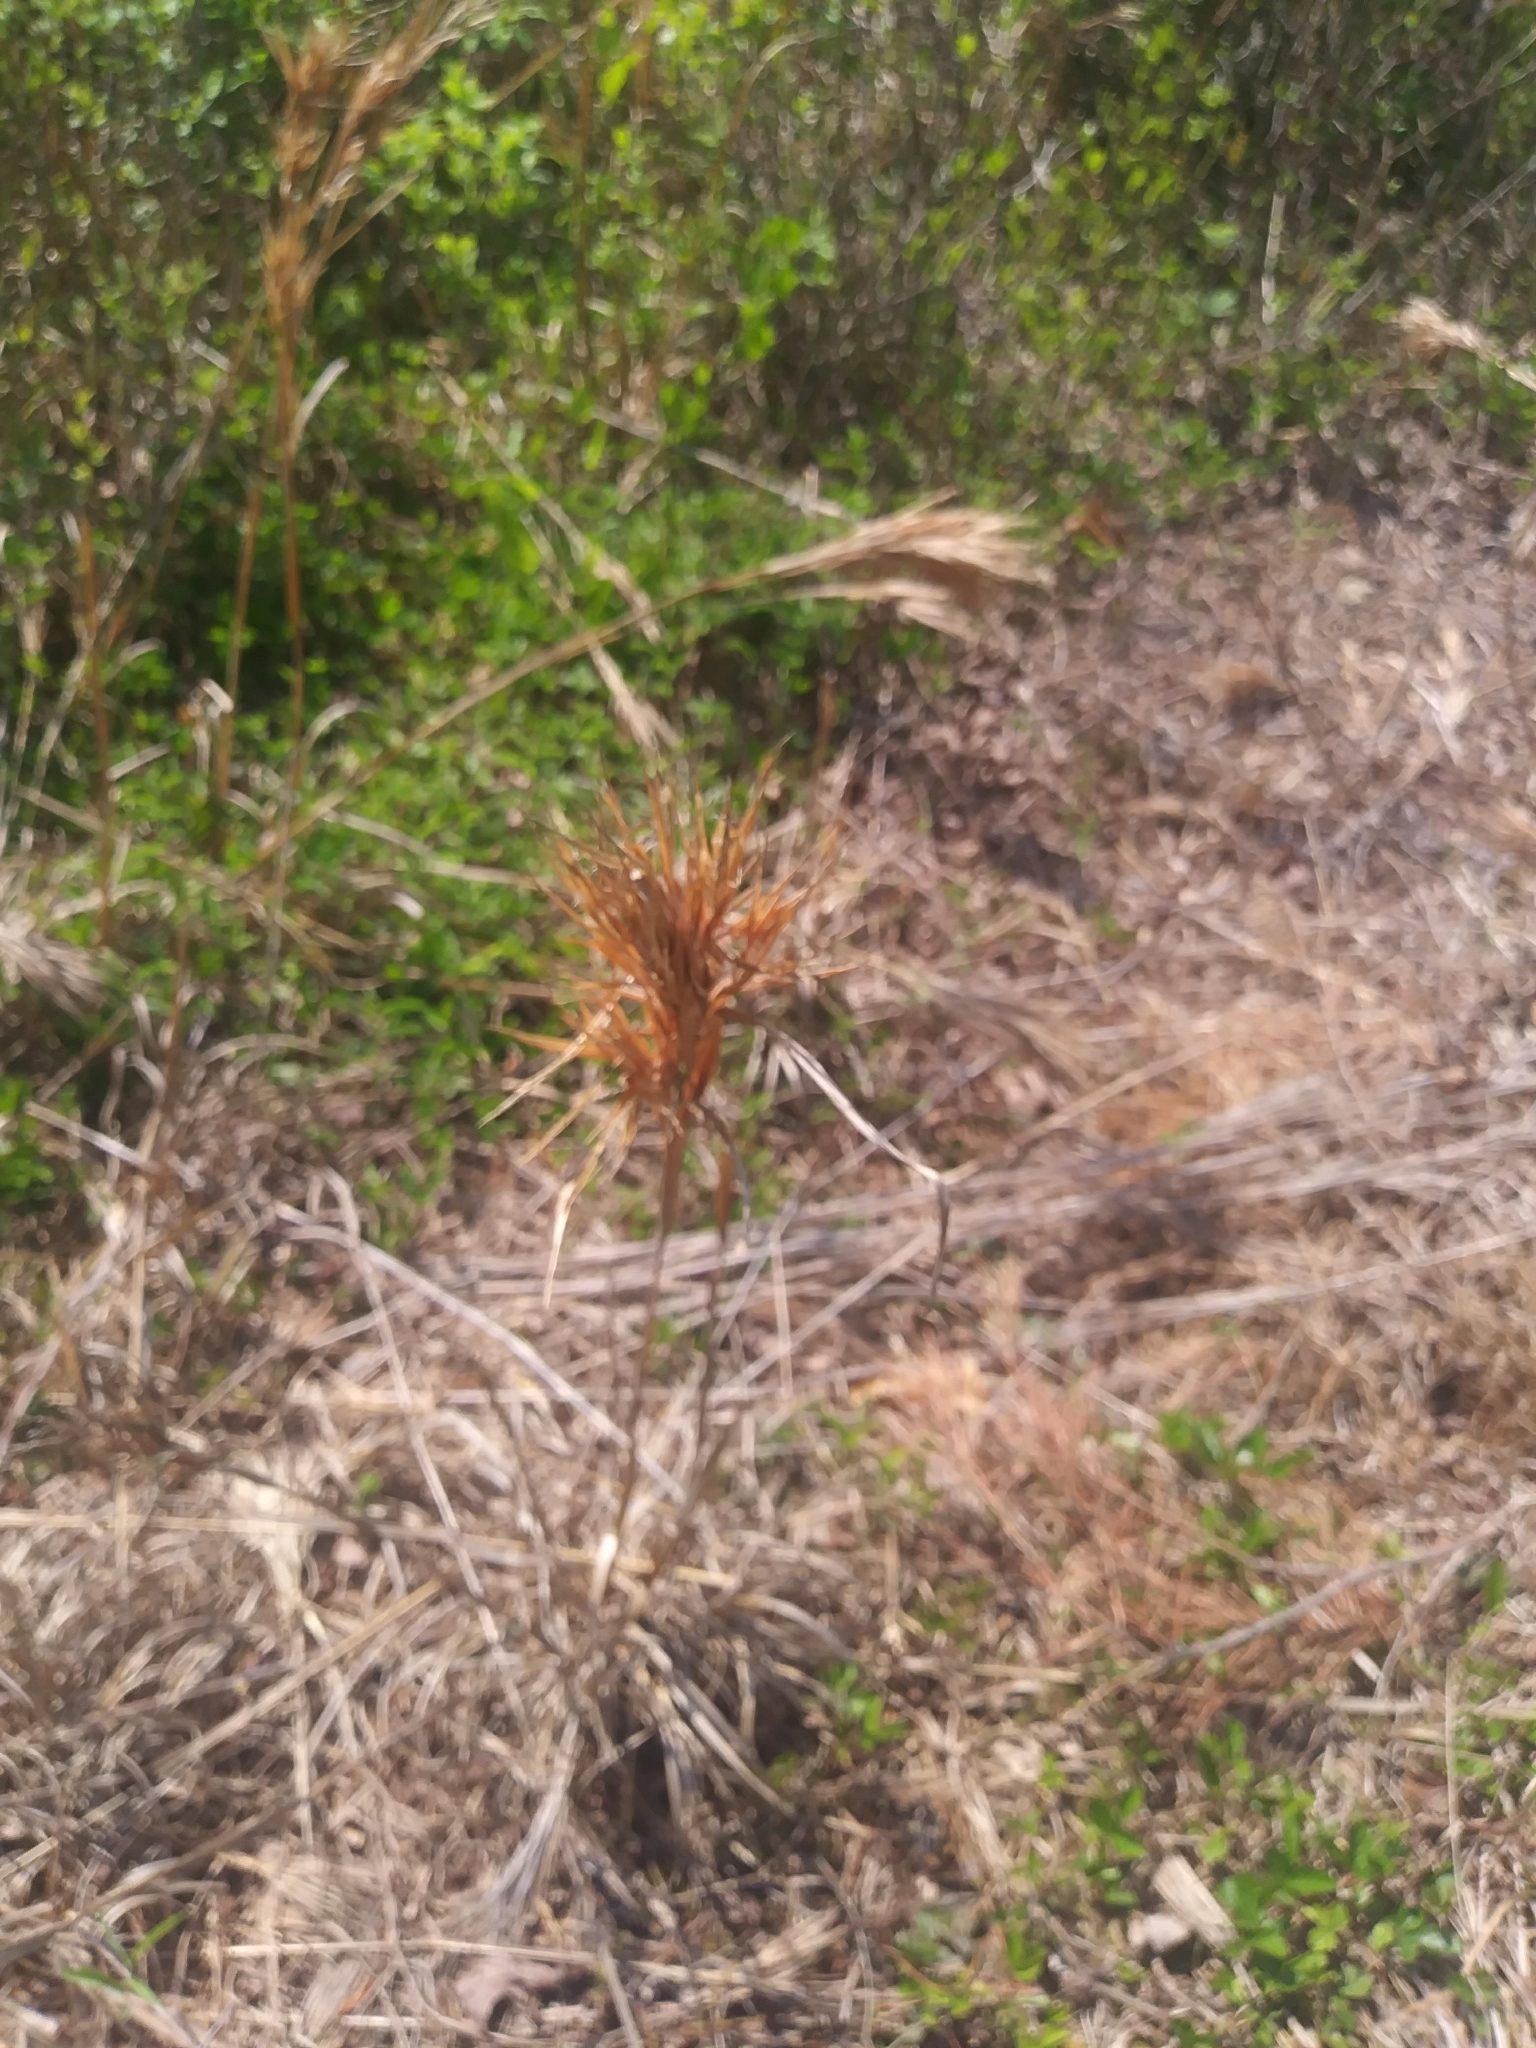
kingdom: Plantae
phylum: Tracheophyta
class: Liliopsida
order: Poales
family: Poaceae
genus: Andropogon
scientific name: Andropogon glomeratus
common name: Bushy beard grass
